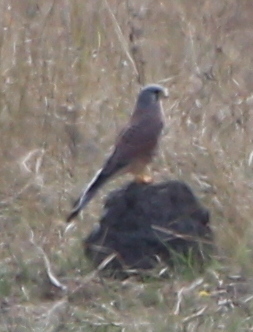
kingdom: Animalia
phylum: Chordata
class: Aves
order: Falconiformes
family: Falconidae
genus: Falco
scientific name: Falco tinnunculus
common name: Common kestrel
